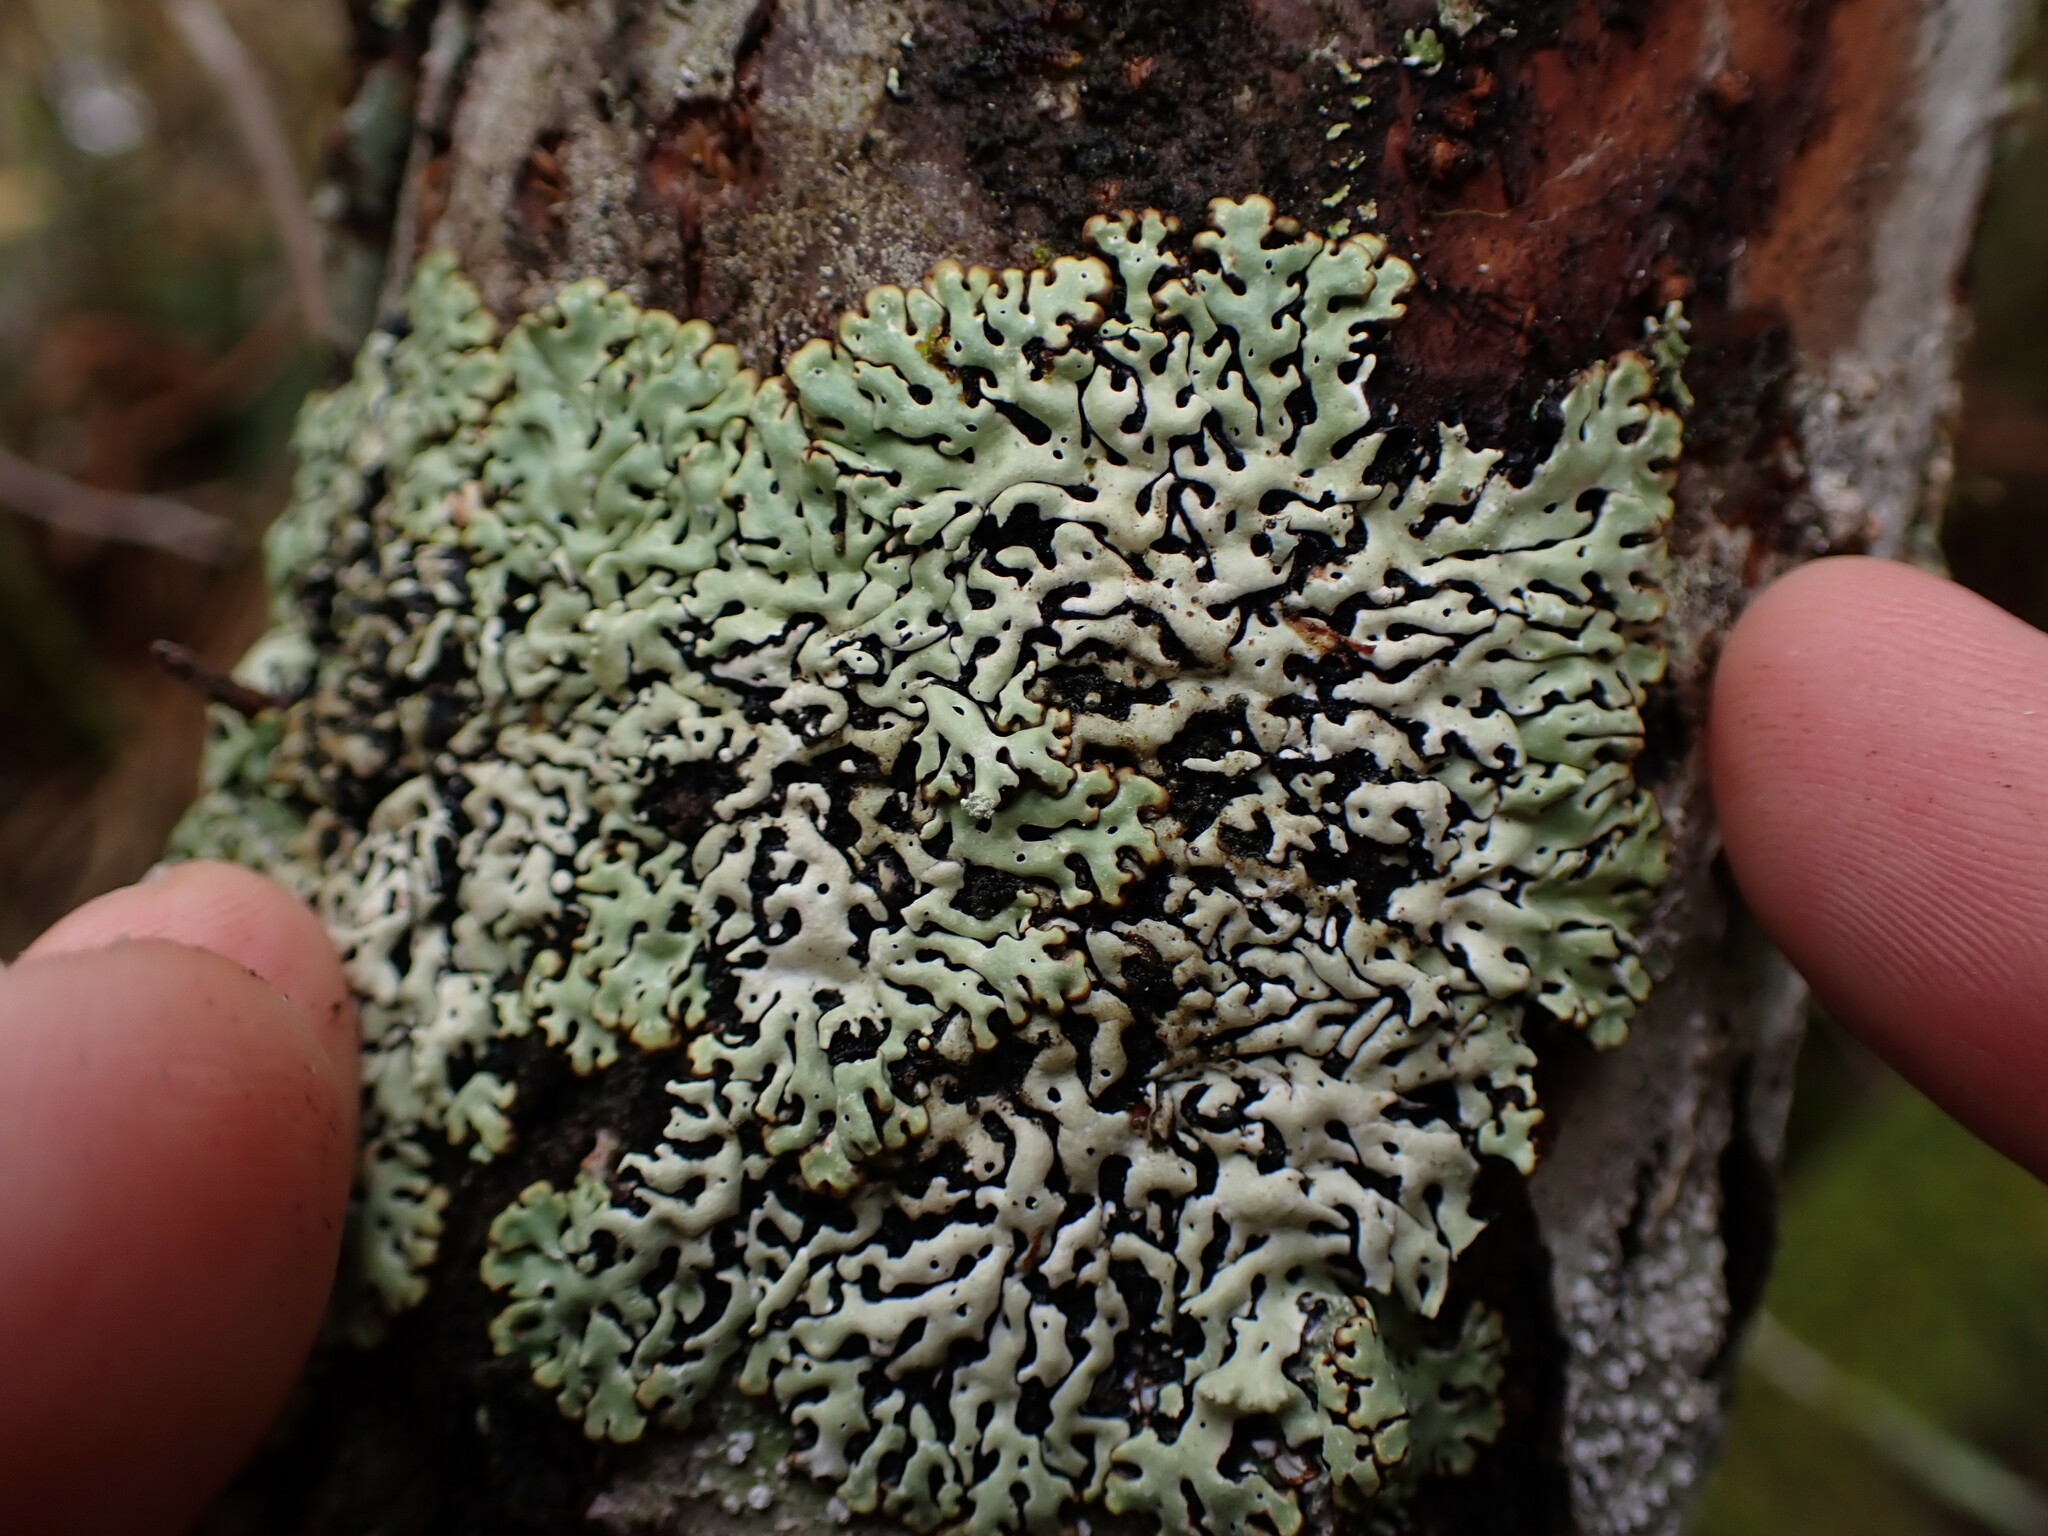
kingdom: Fungi
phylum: Ascomycota
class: Lecanoromycetes
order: Lecanorales
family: Parmeliaceae
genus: Menegazzia
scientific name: Menegazzia subsimilis
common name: Tree flute lichen
